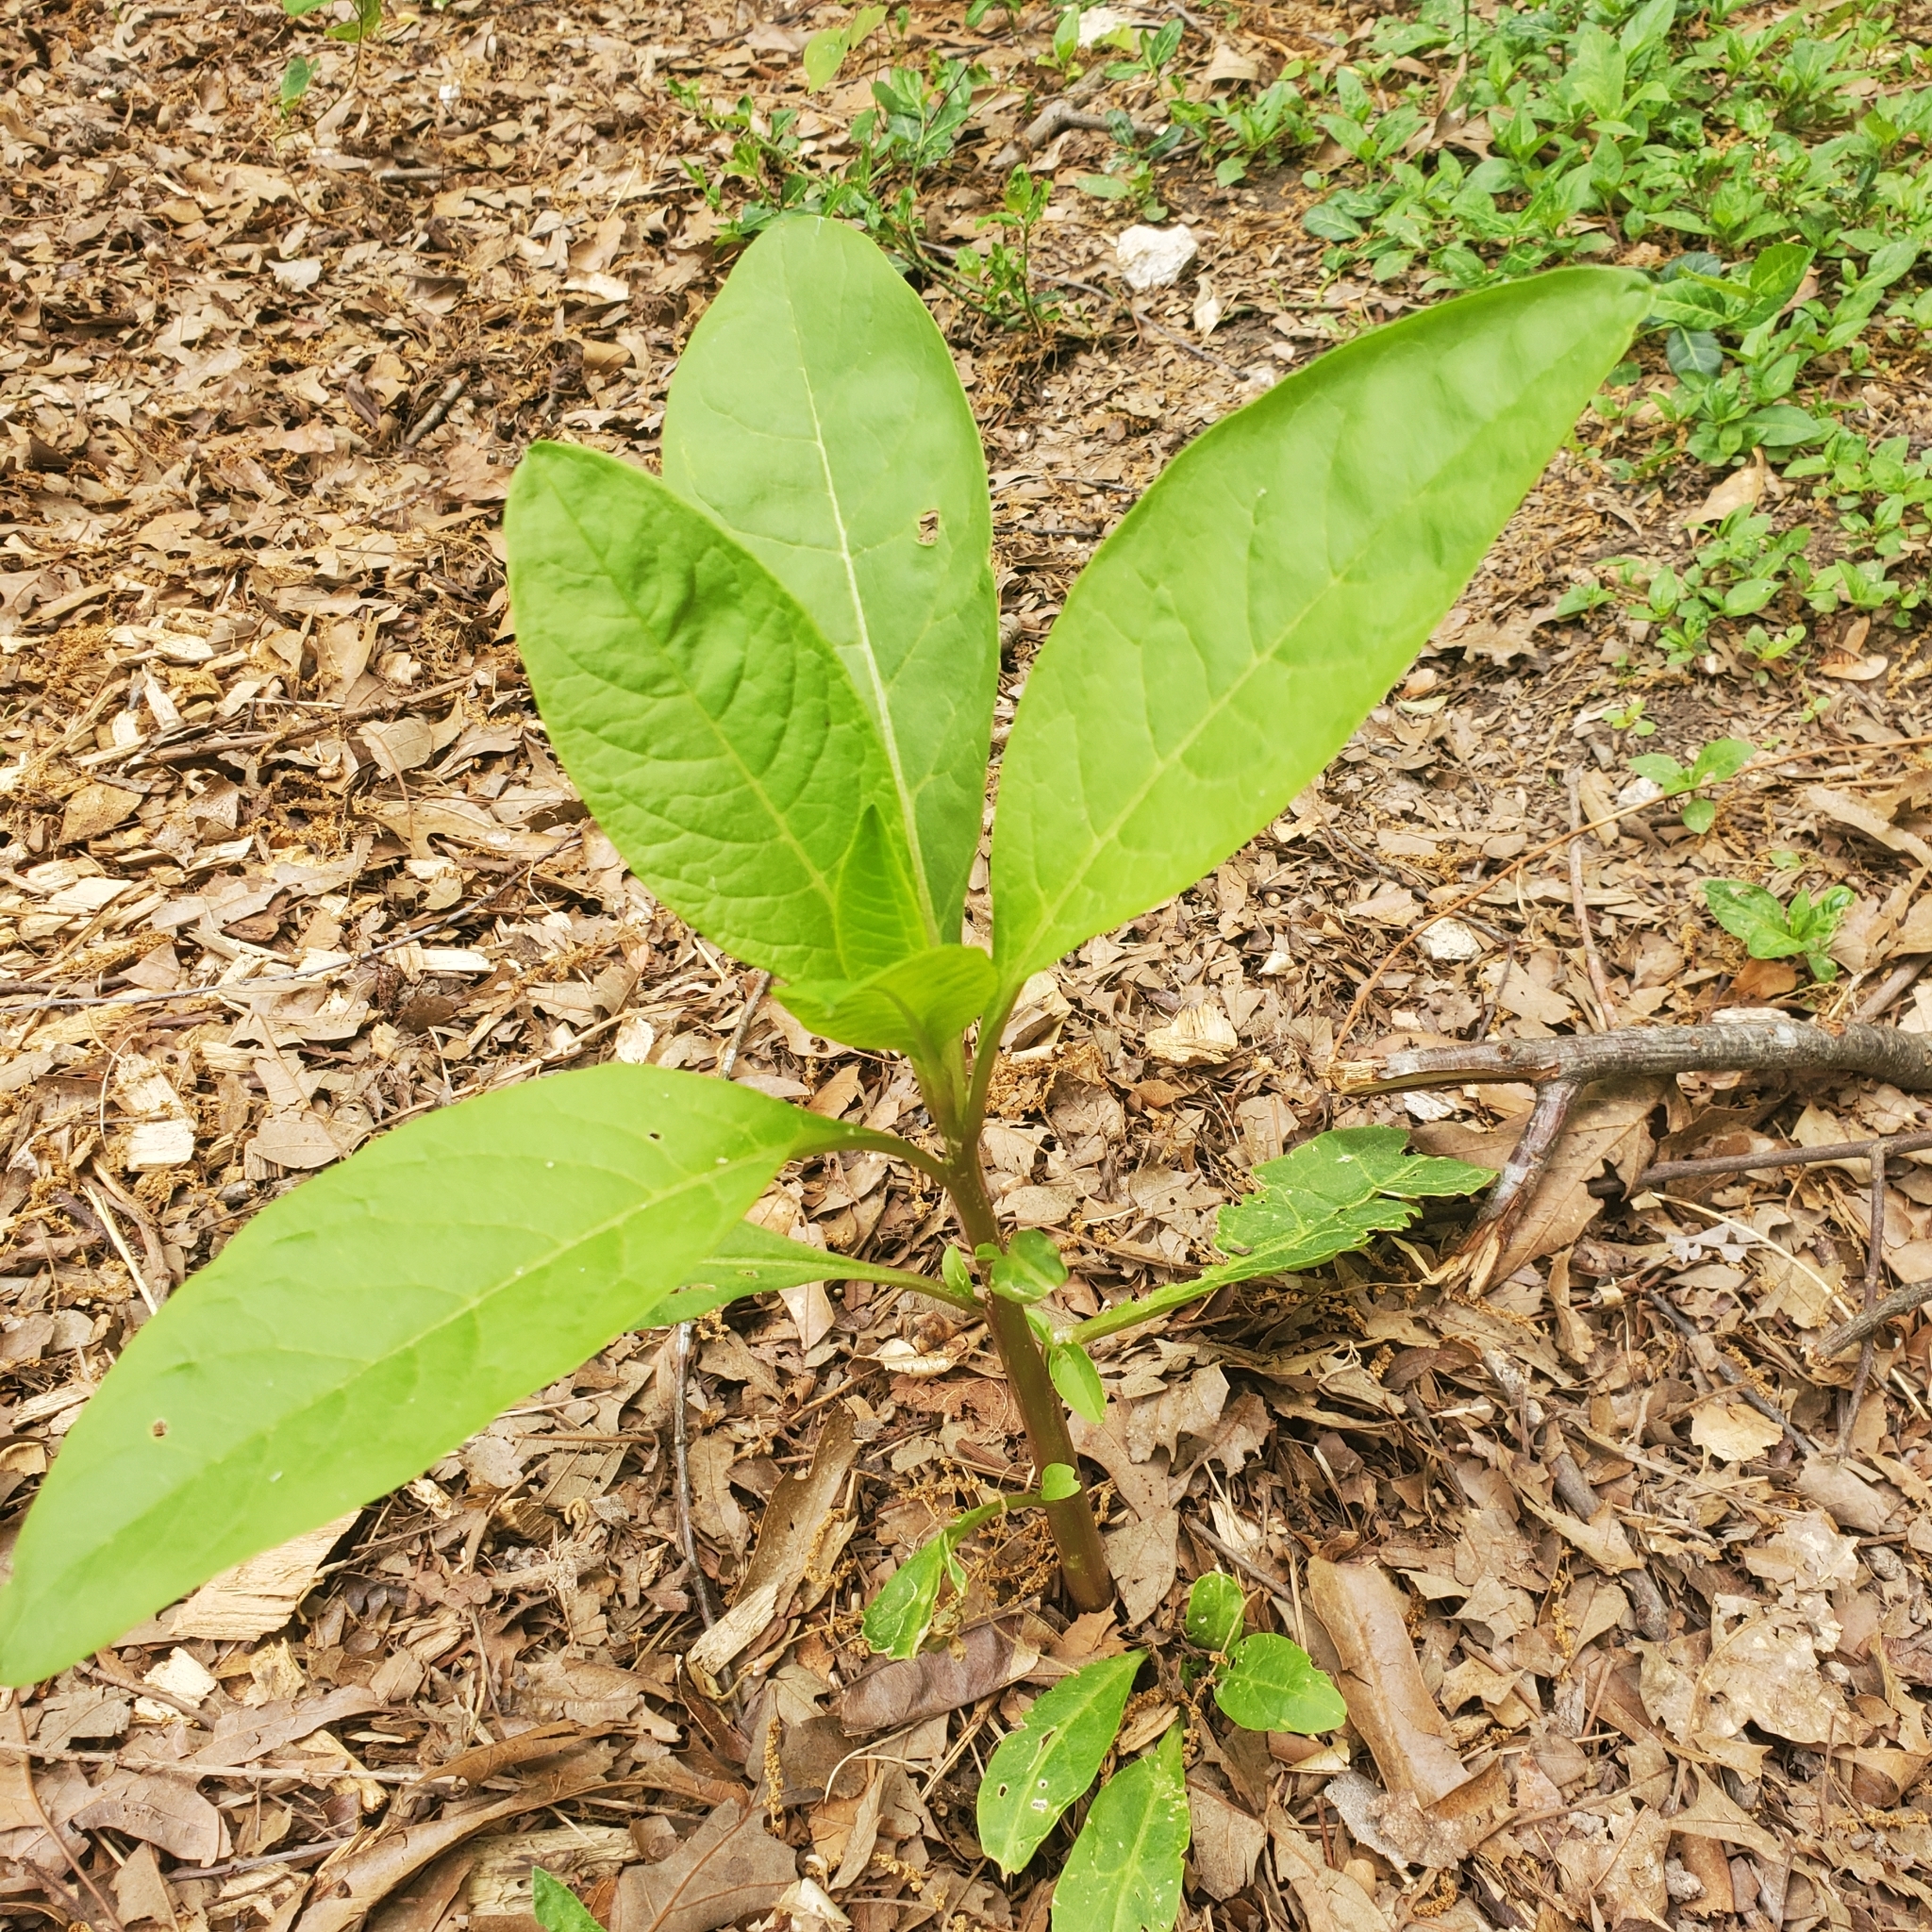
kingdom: Plantae
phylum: Tracheophyta
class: Magnoliopsida
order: Caryophyllales
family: Phytolaccaceae
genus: Phytolacca
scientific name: Phytolacca americana
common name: American pokeweed
